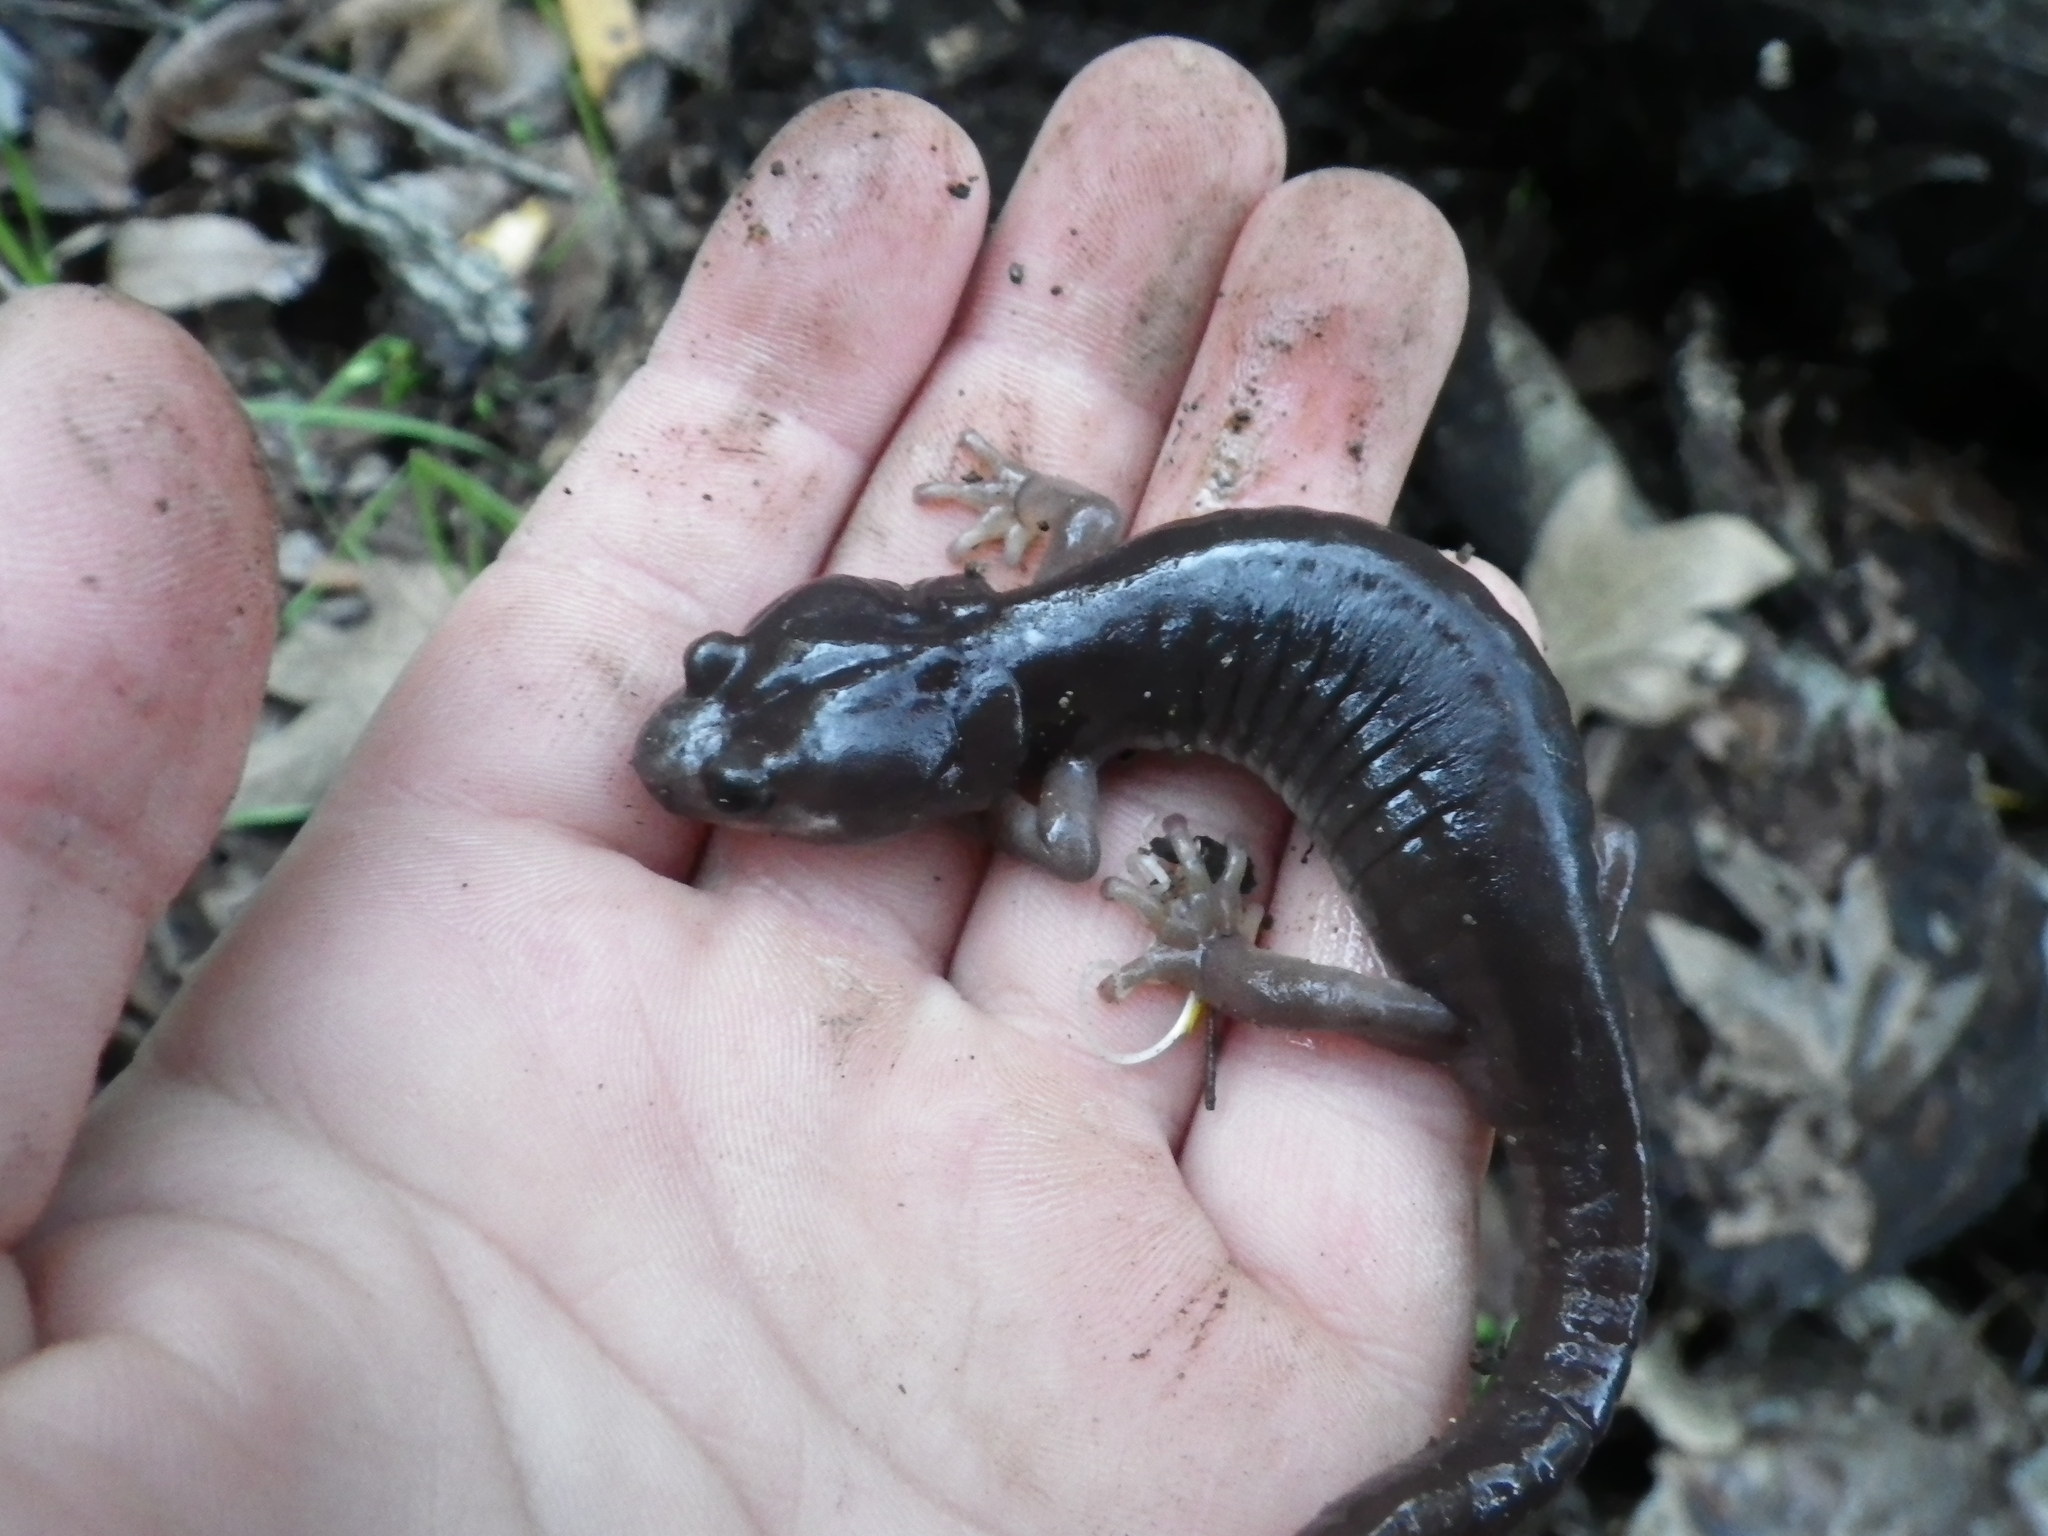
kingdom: Animalia
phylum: Chordata
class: Amphibia
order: Caudata
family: Plethodontidae
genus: Aneides
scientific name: Aneides lugubris
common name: Arboreal salamander
